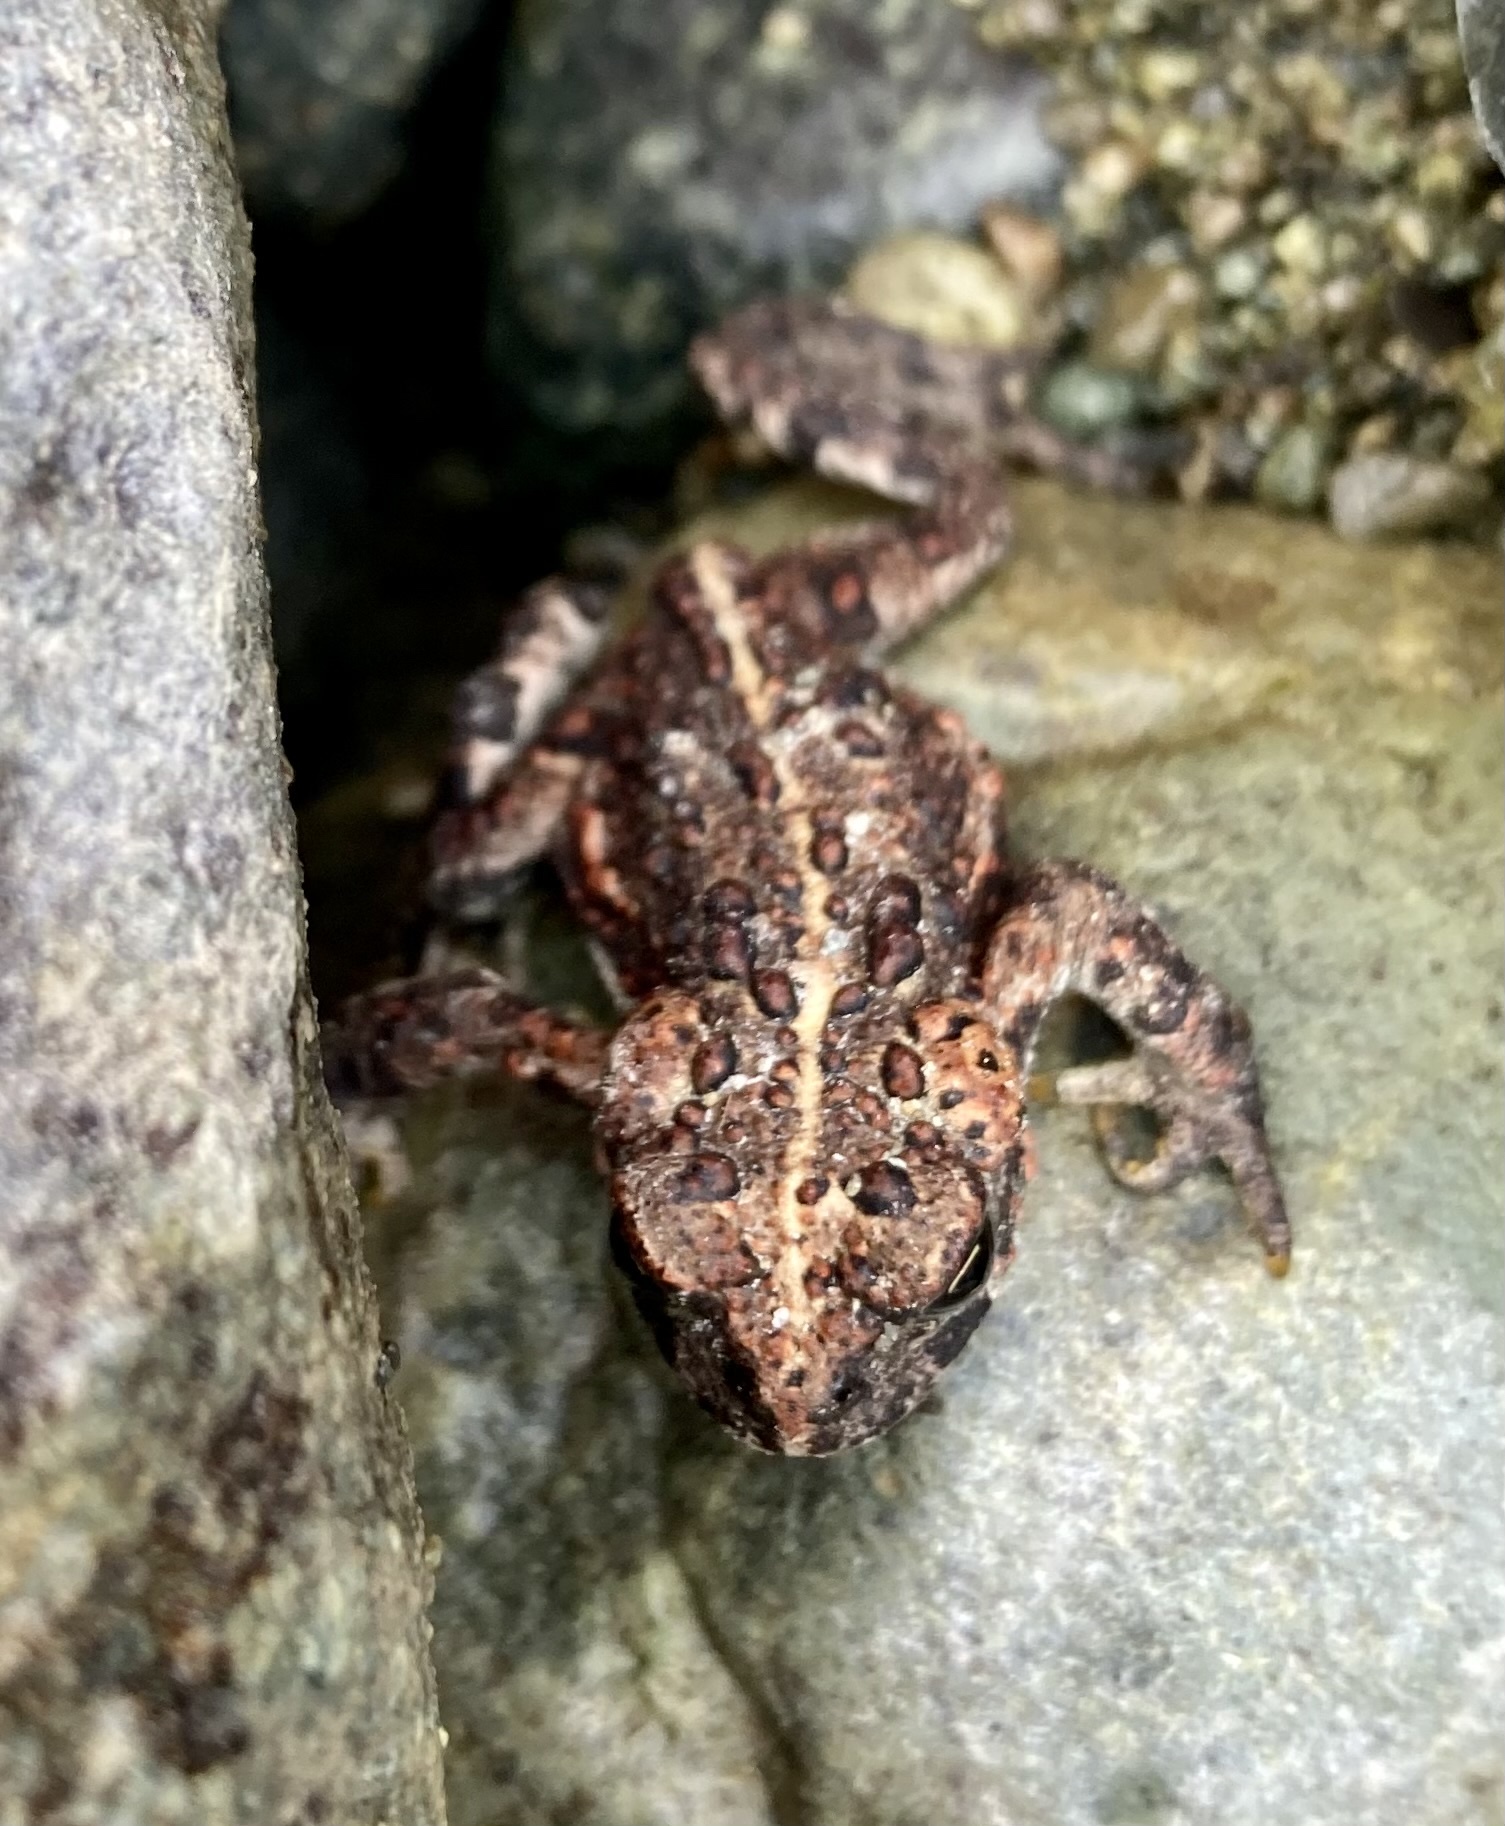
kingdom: Animalia
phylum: Chordata
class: Amphibia
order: Anura
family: Bufonidae
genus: Anaxyrus
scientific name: Anaxyrus boreas
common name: Western toad
